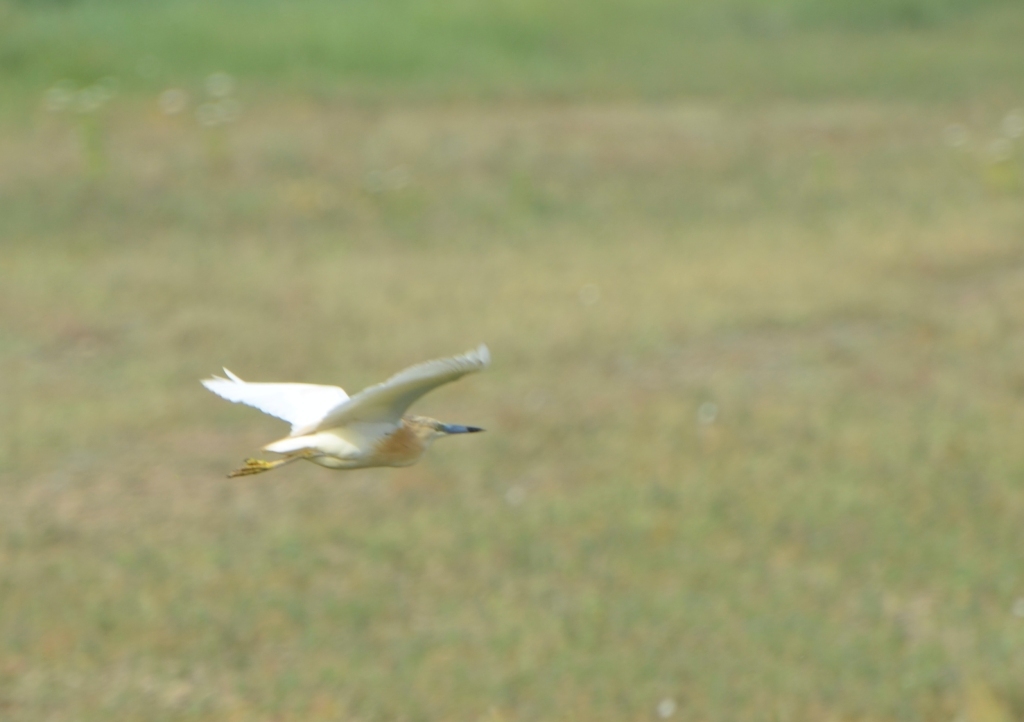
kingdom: Animalia
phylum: Chordata
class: Aves
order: Pelecaniformes
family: Ardeidae
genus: Ardeola
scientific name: Ardeola ralloides
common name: Squacco heron
